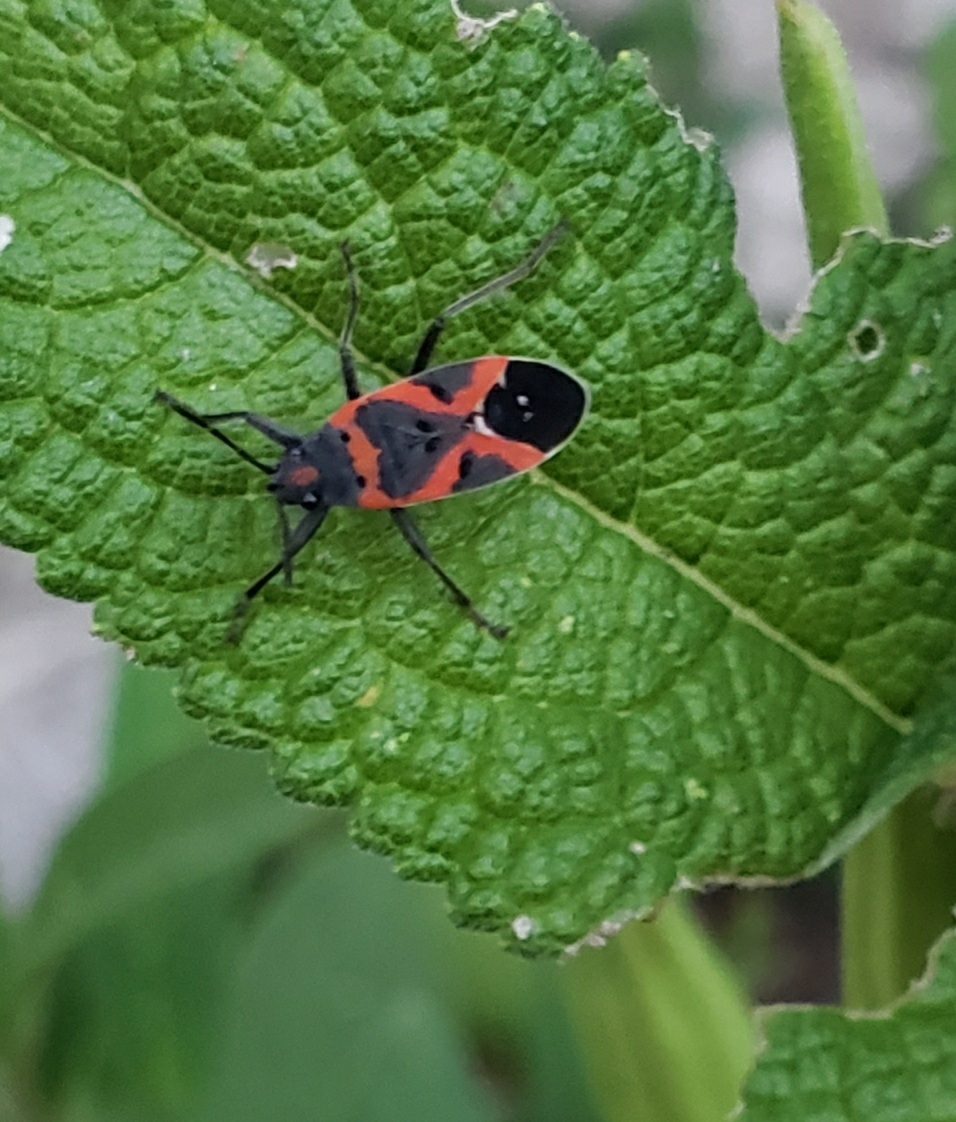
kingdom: Animalia
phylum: Arthropoda
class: Insecta
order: Hemiptera
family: Lygaeidae
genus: Lygaeus
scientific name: Lygaeus kalmii
